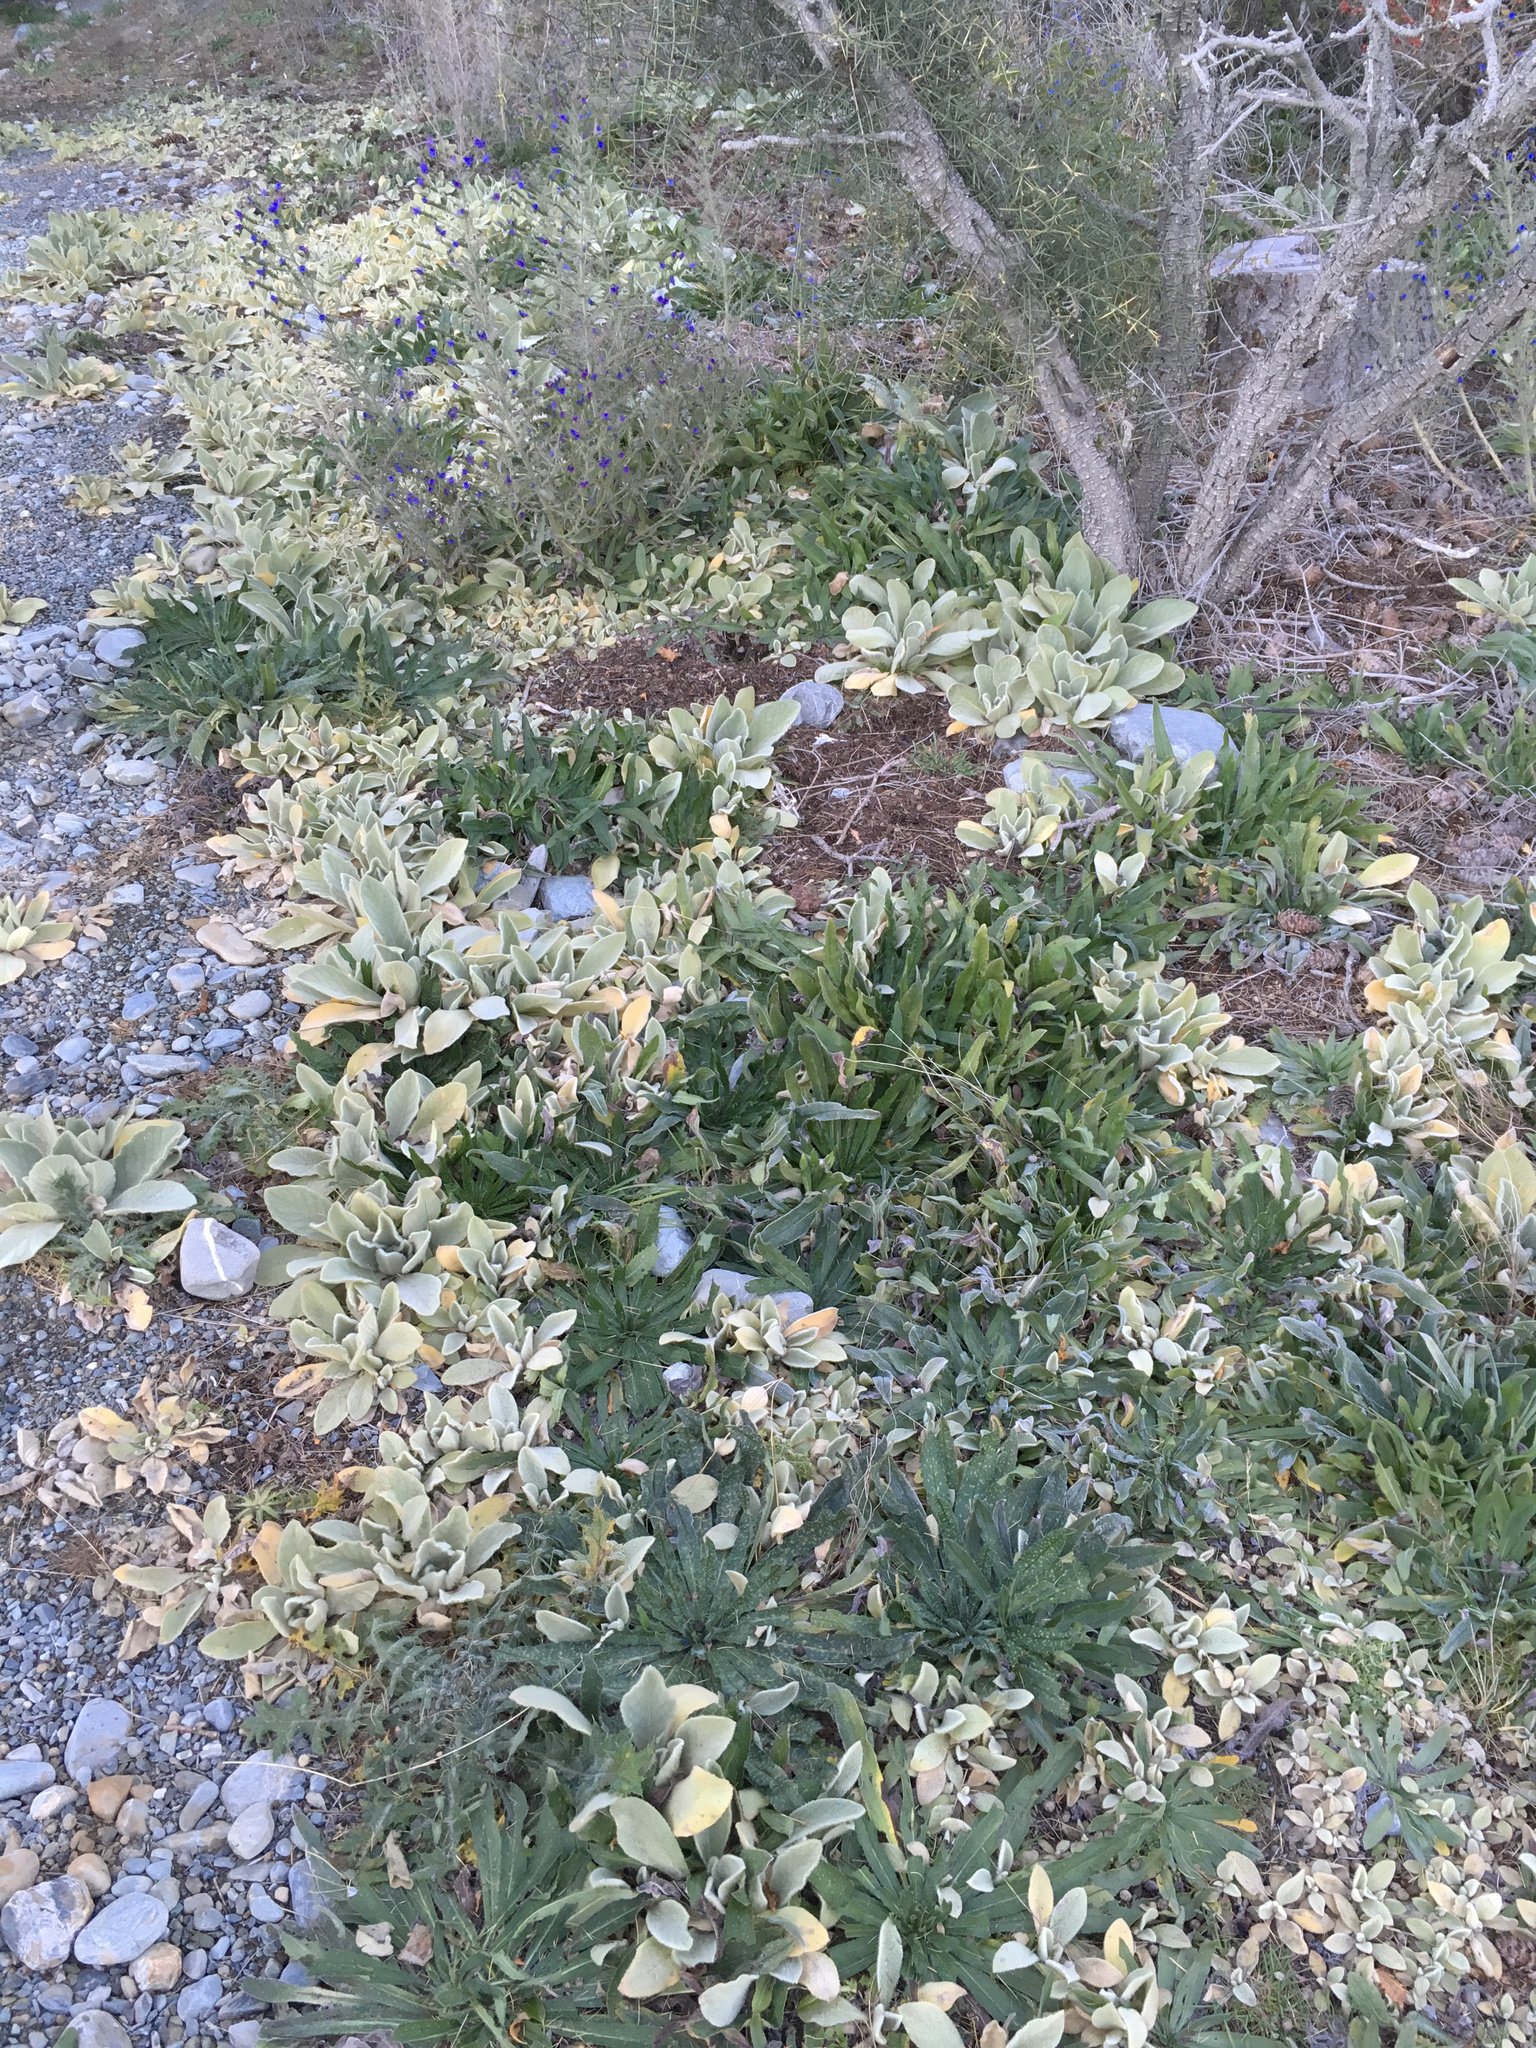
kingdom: Plantae
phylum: Tracheophyta
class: Magnoliopsida
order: Lamiales
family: Scrophulariaceae
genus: Verbascum
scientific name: Verbascum thapsus
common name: Common mullein
